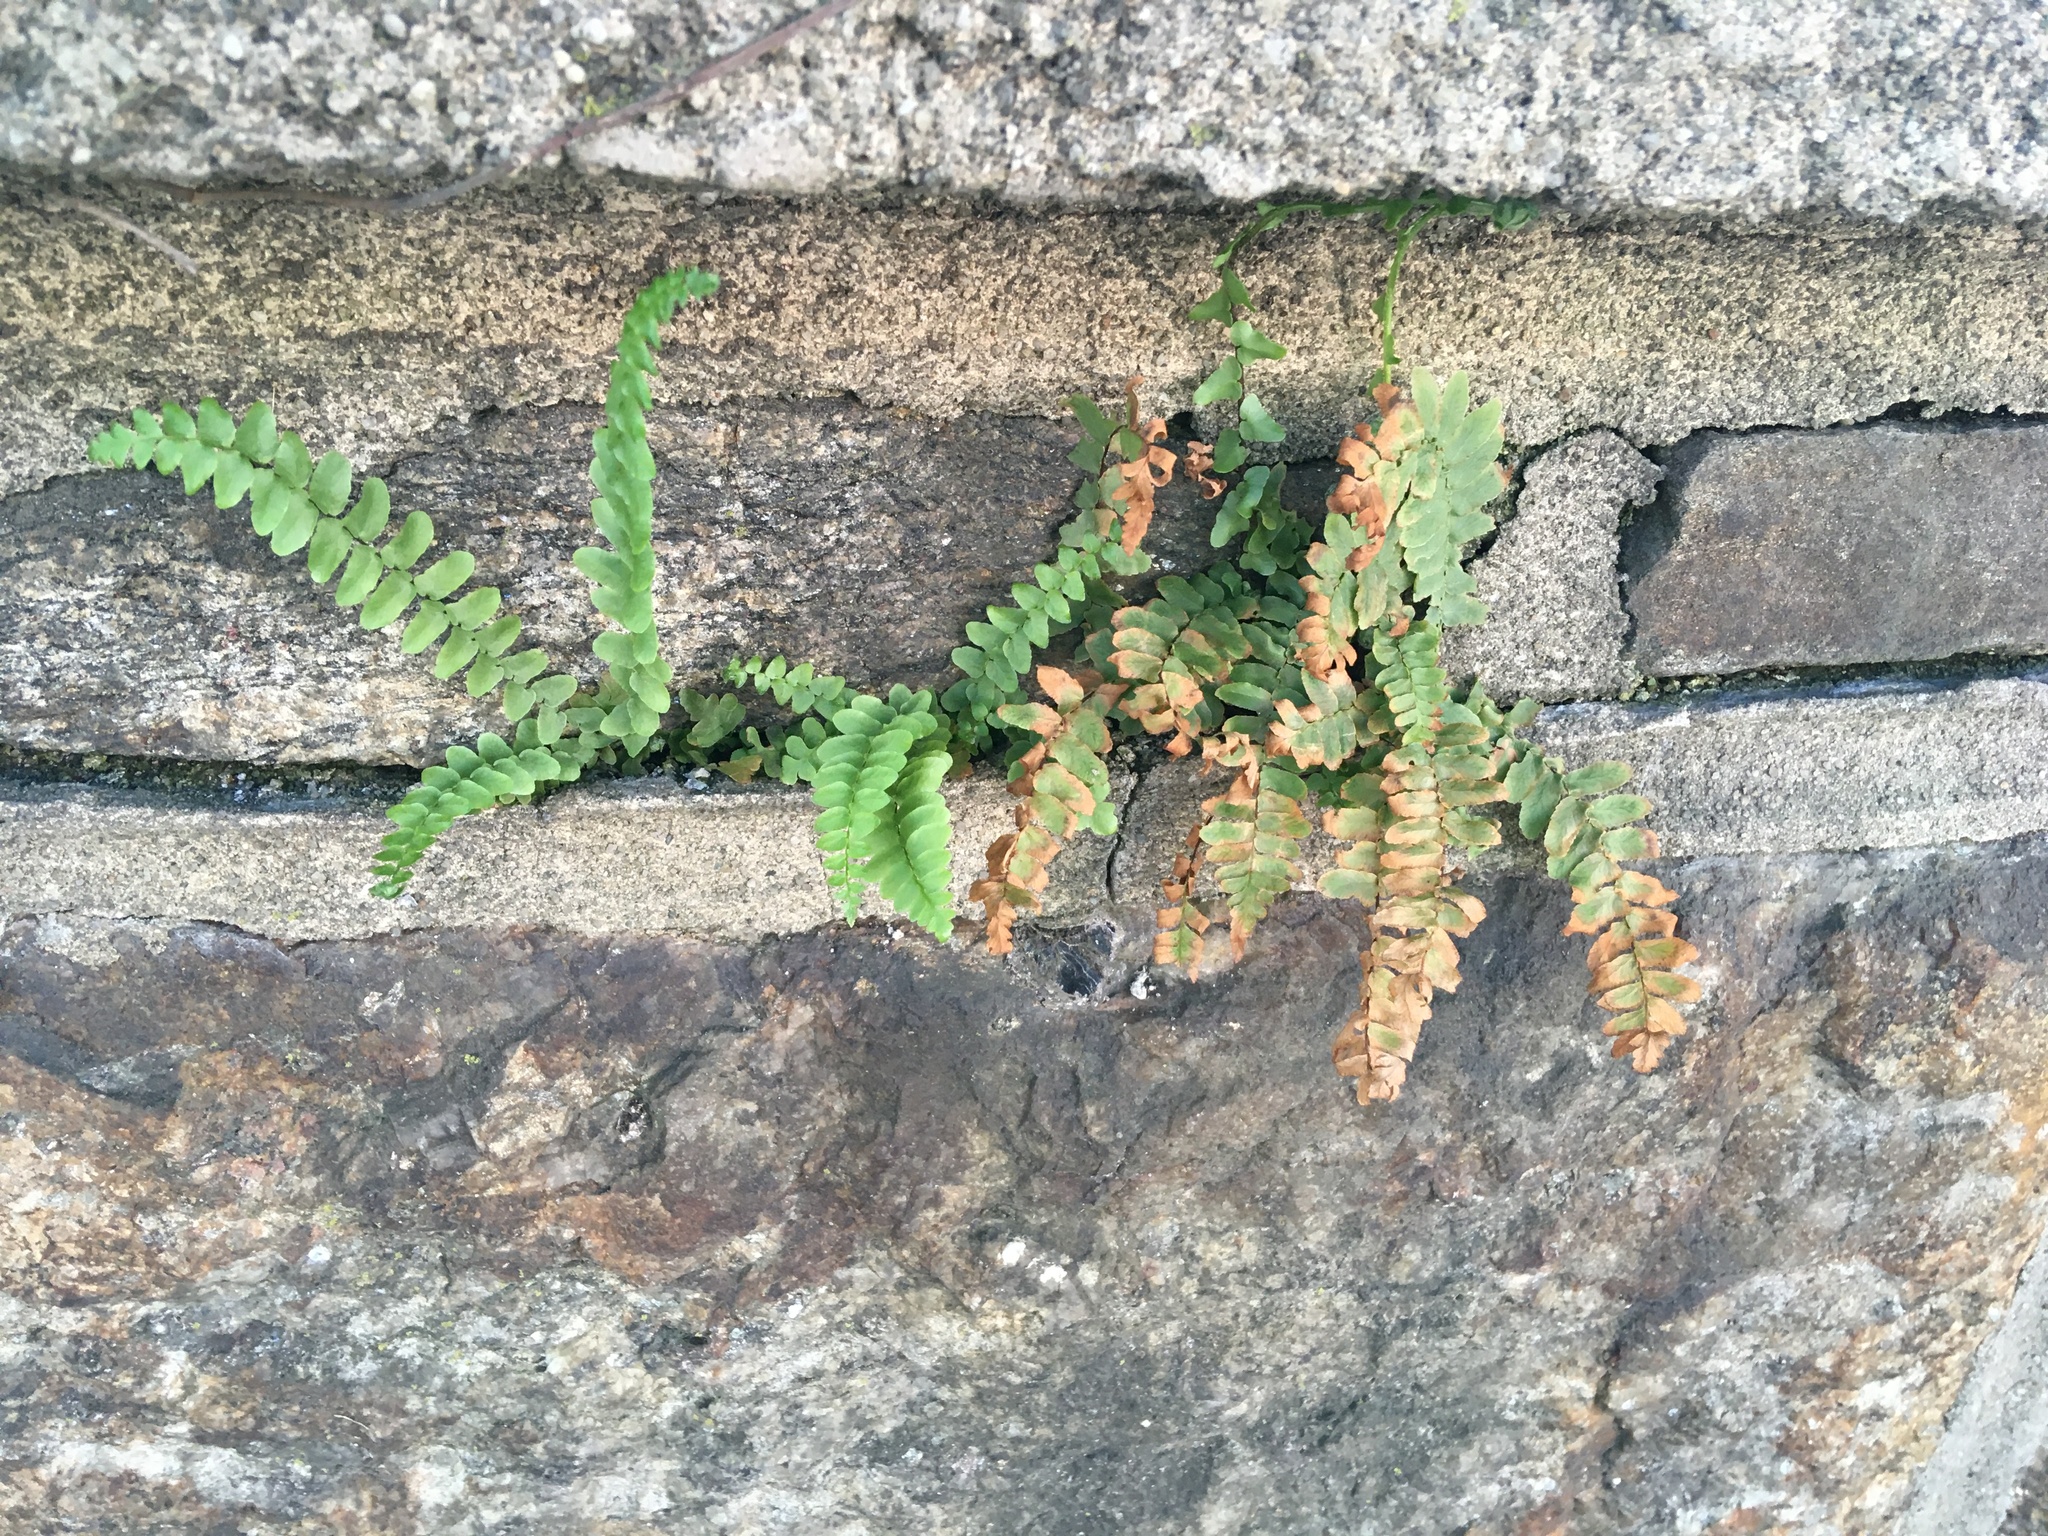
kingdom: Plantae
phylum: Tracheophyta
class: Polypodiopsida
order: Polypodiales
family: Aspleniaceae
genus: Asplenium
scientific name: Asplenium platyneuron
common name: Ebony spleenwort
